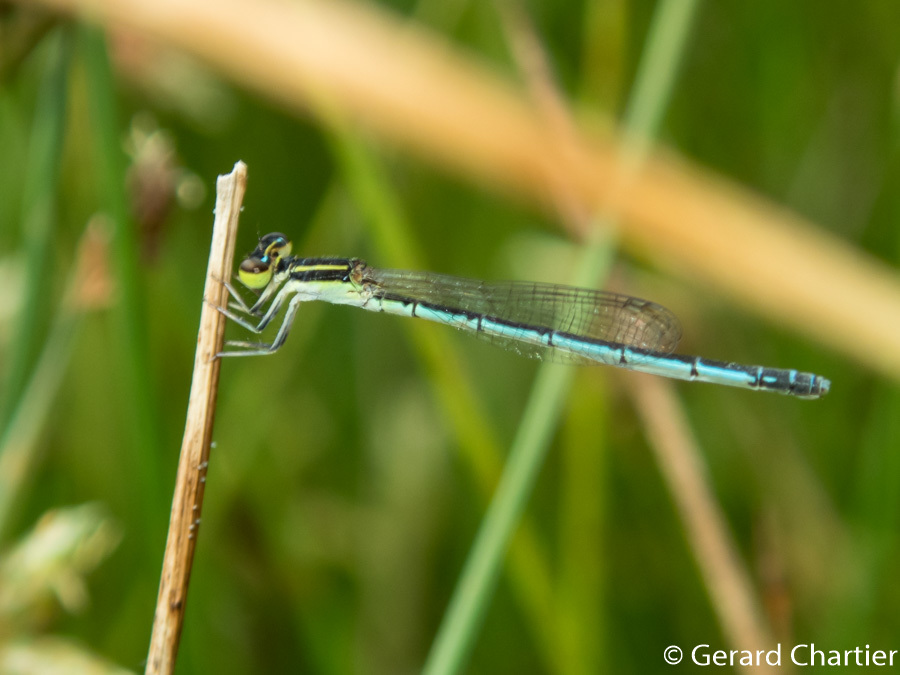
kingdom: Animalia
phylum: Arthropoda
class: Insecta
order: Odonata
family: Coenagrionidae
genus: Agriocnemis
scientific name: Agriocnemis nana
